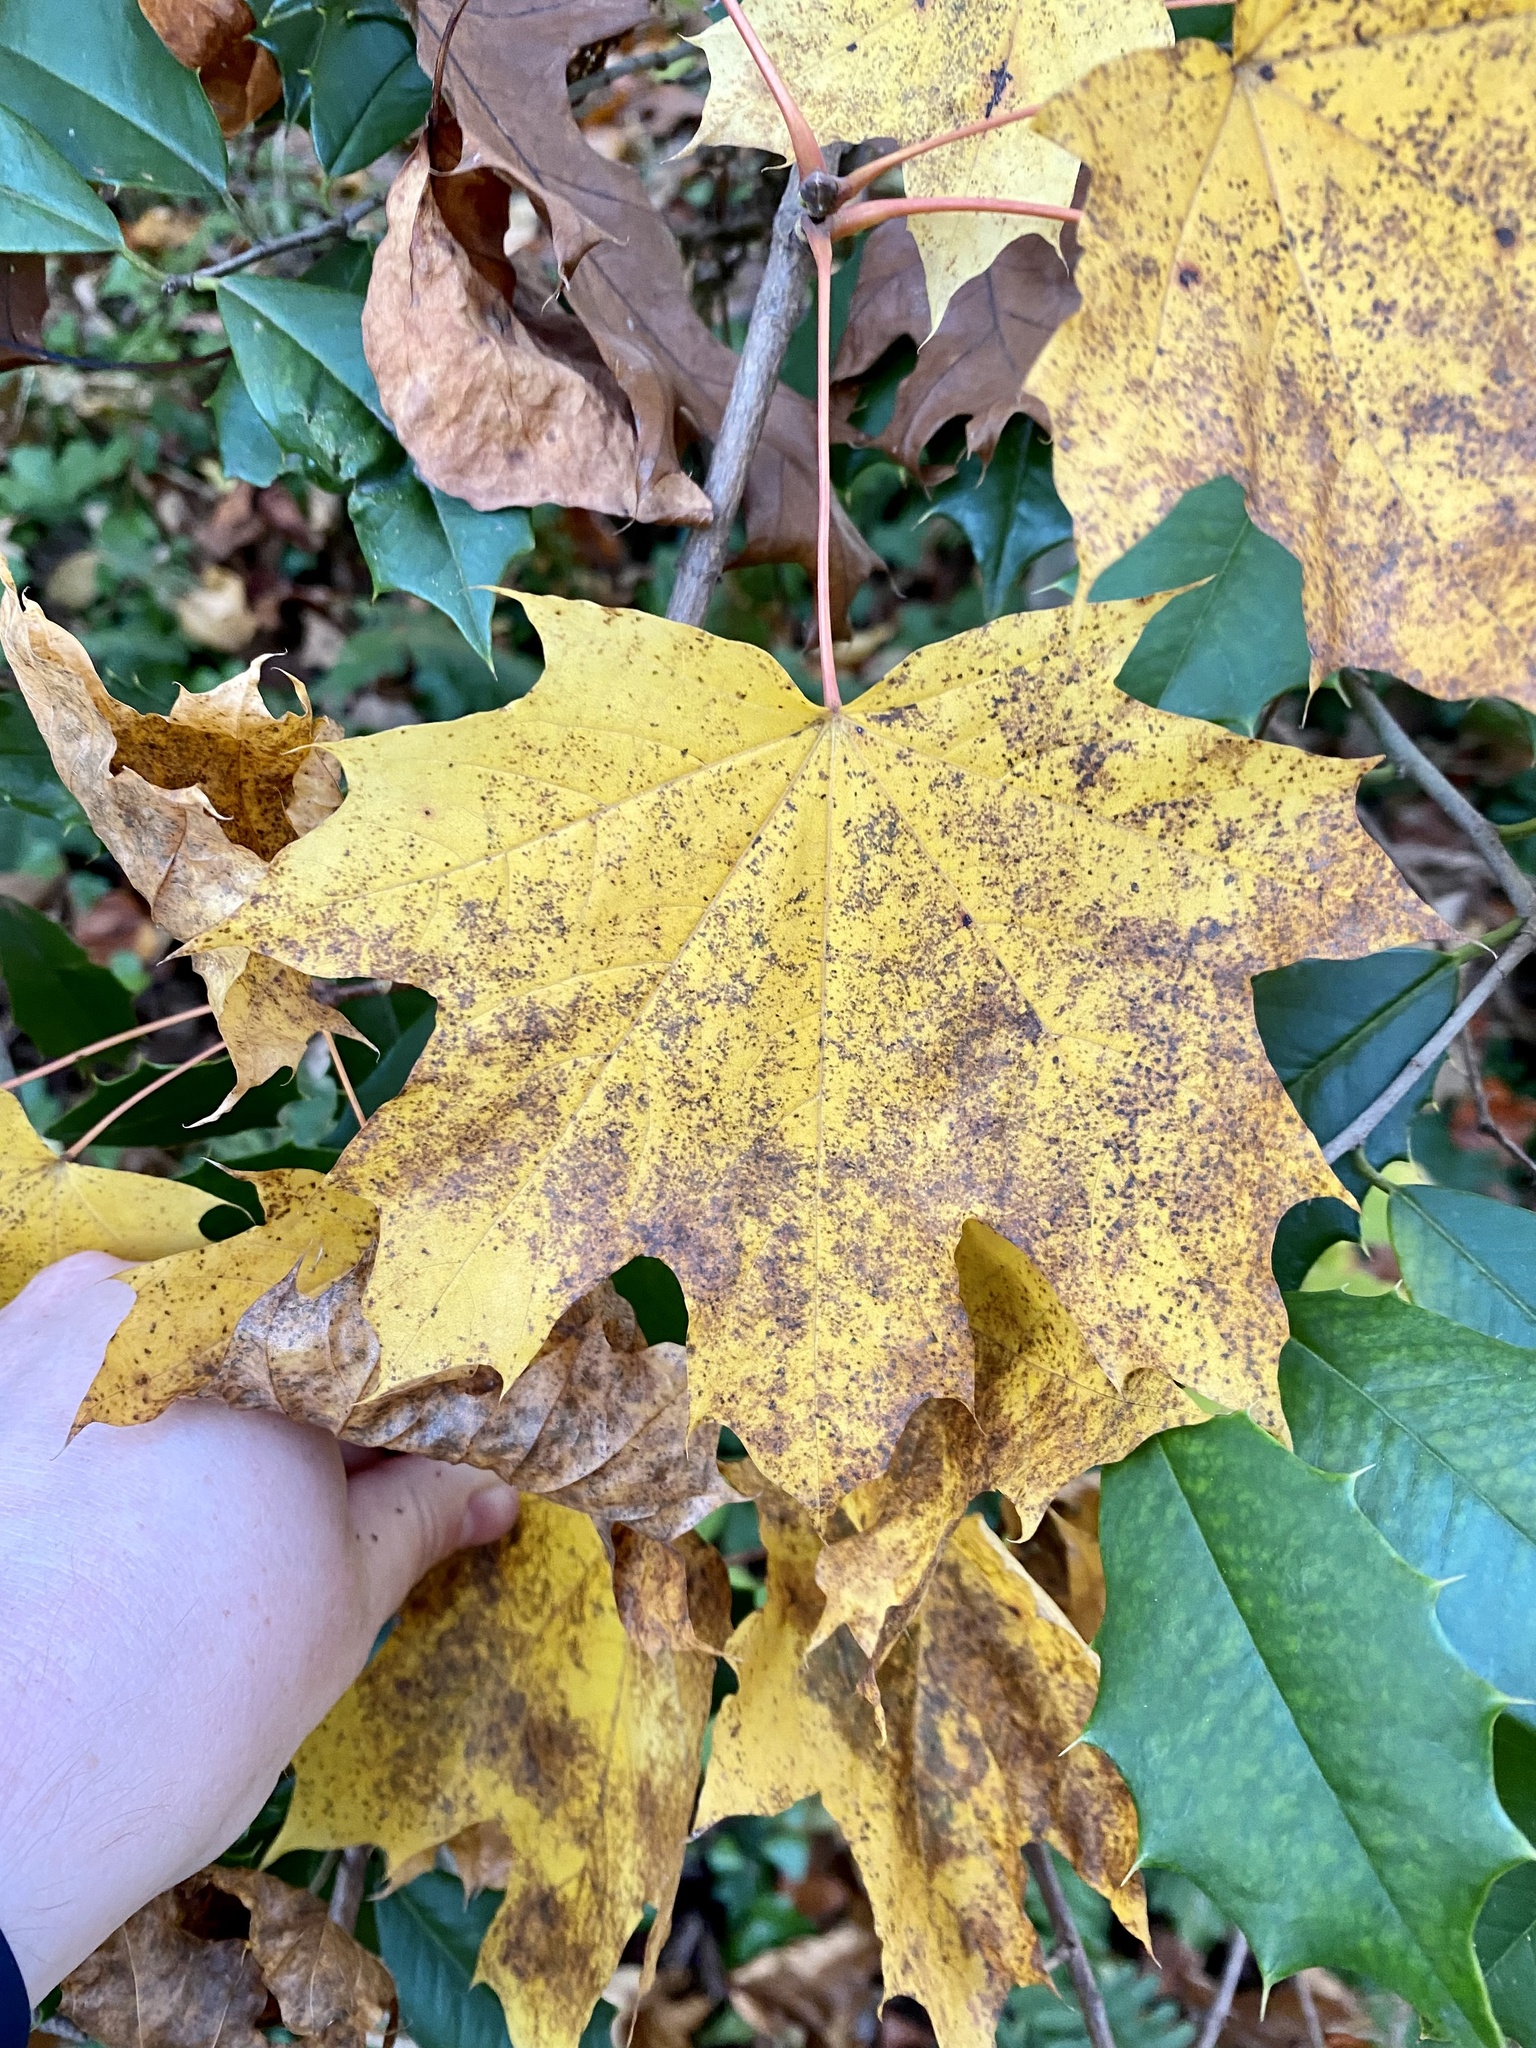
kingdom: Plantae
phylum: Tracheophyta
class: Magnoliopsida
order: Sapindales
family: Sapindaceae
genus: Acer
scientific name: Acer platanoides
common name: Norway maple
